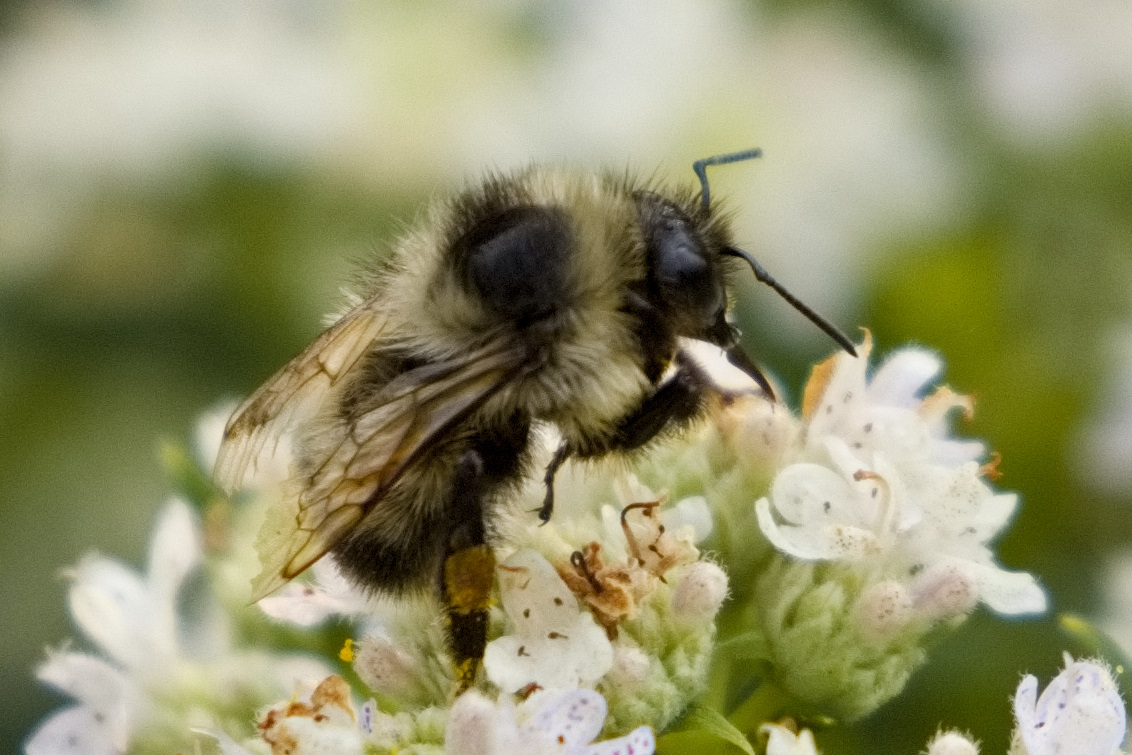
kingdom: Animalia
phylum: Arthropoda
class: Insecta
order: Hymenoptera
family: Apidae
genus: Bombus
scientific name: Bombus rufocinctus
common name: Red-belted bumble bee
